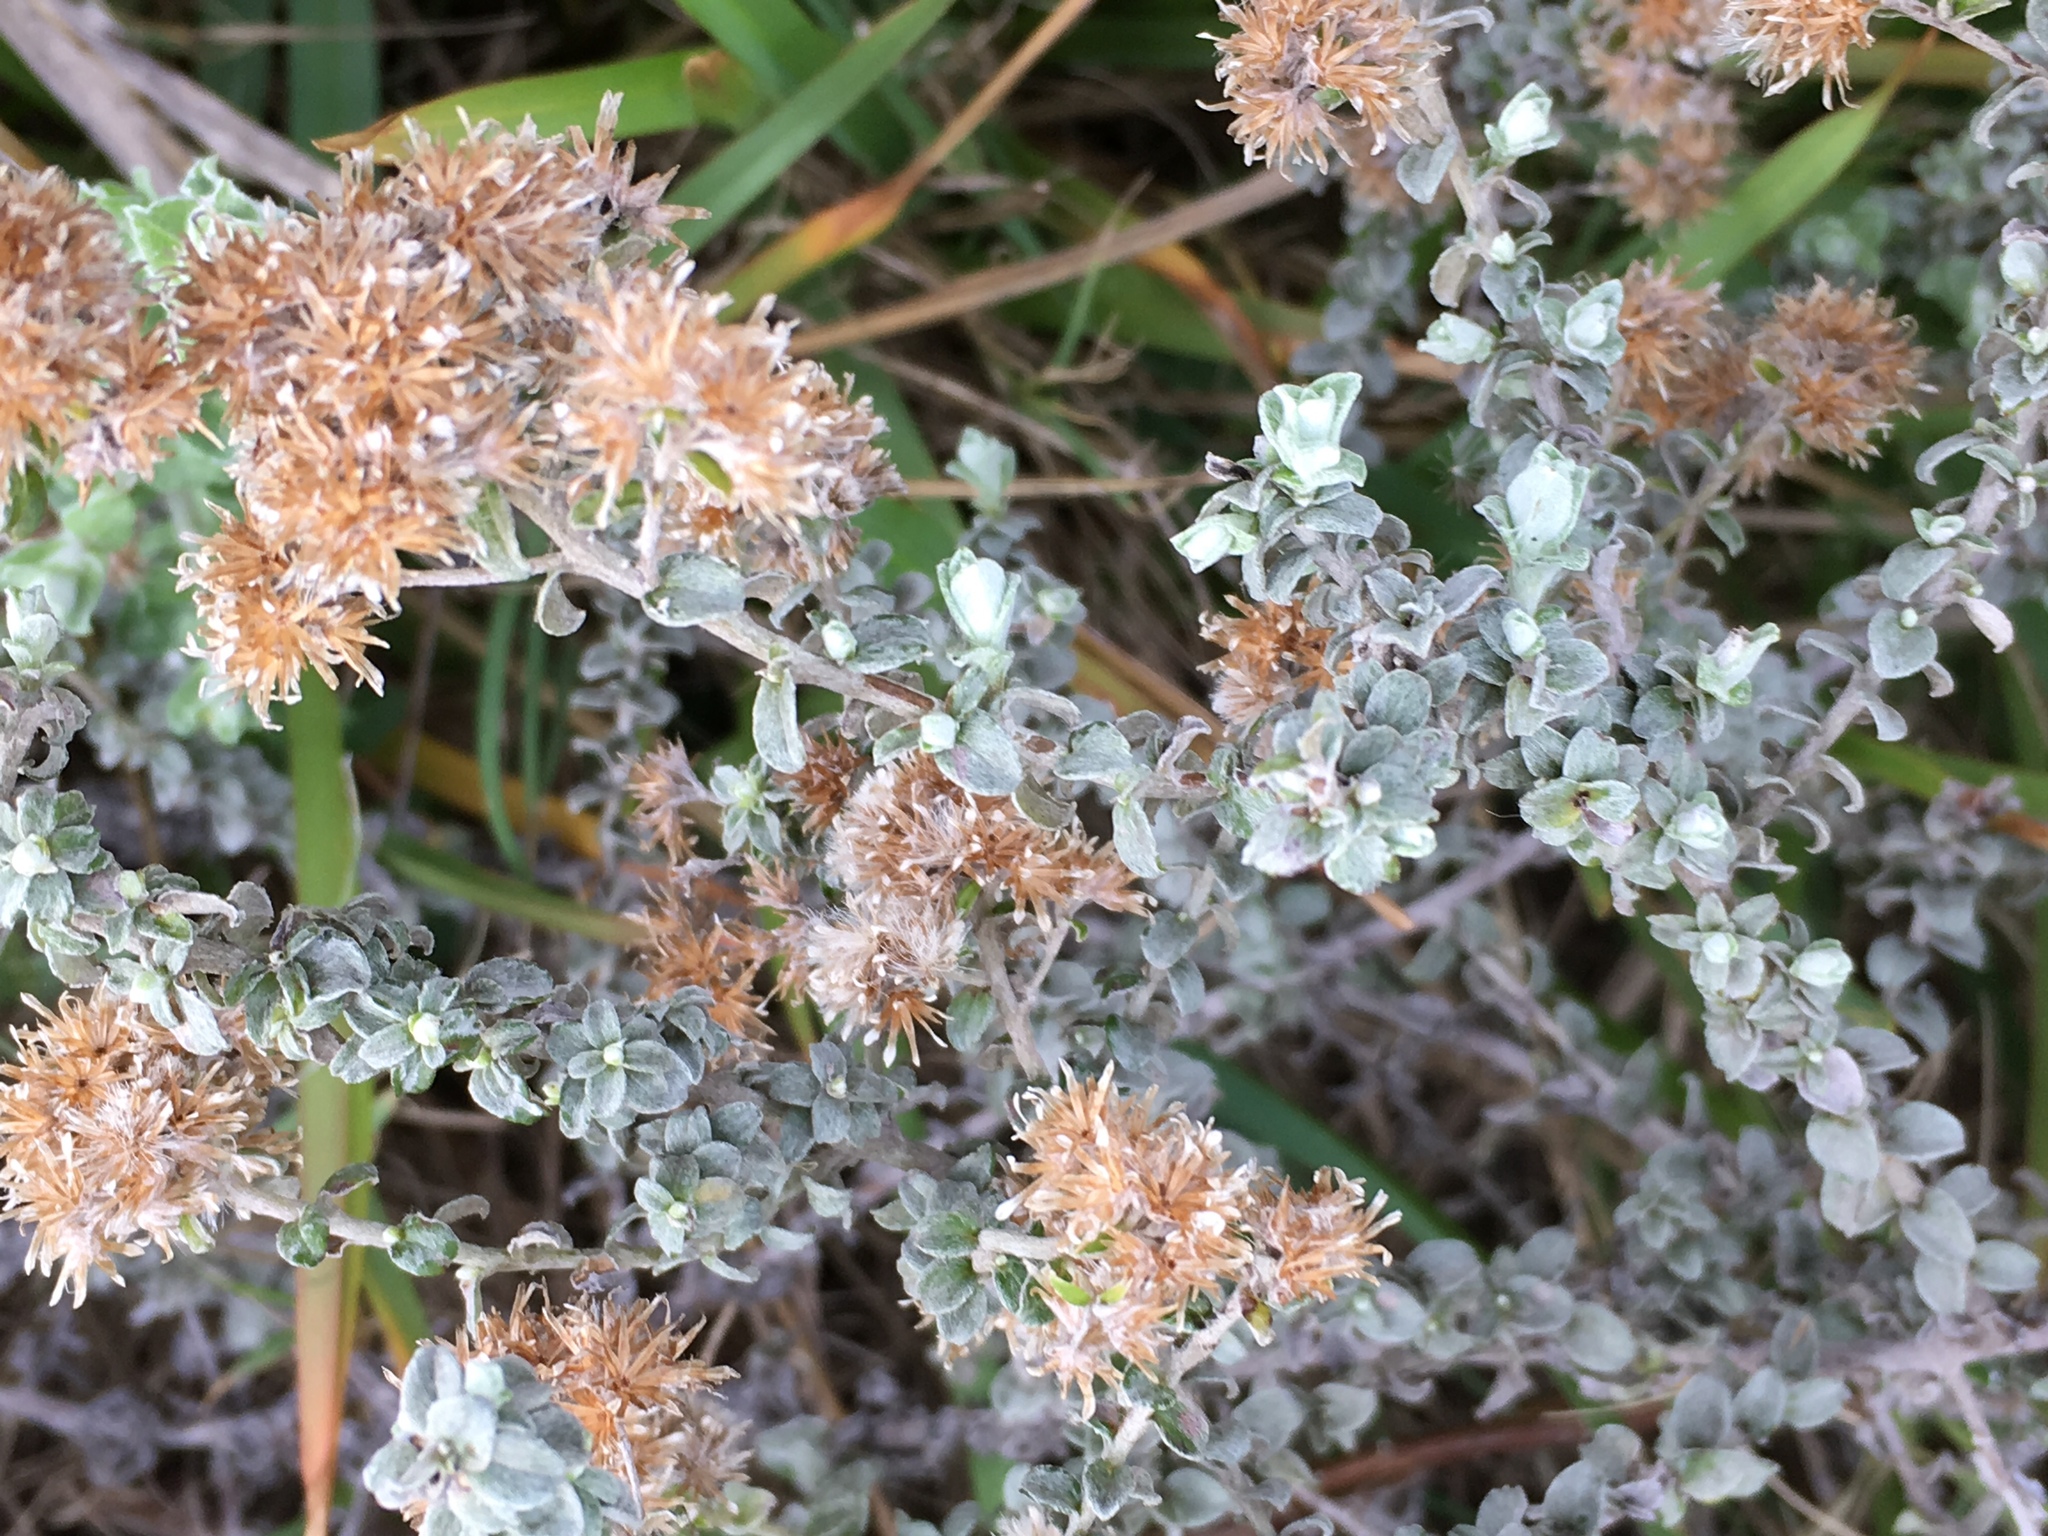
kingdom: Plantae
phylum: Tracheophyta
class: Magnoliopsida
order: Asterales
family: Asteraceae
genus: Plecostachys
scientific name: Plecostachys serpyllifolia
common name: Petite licorice
